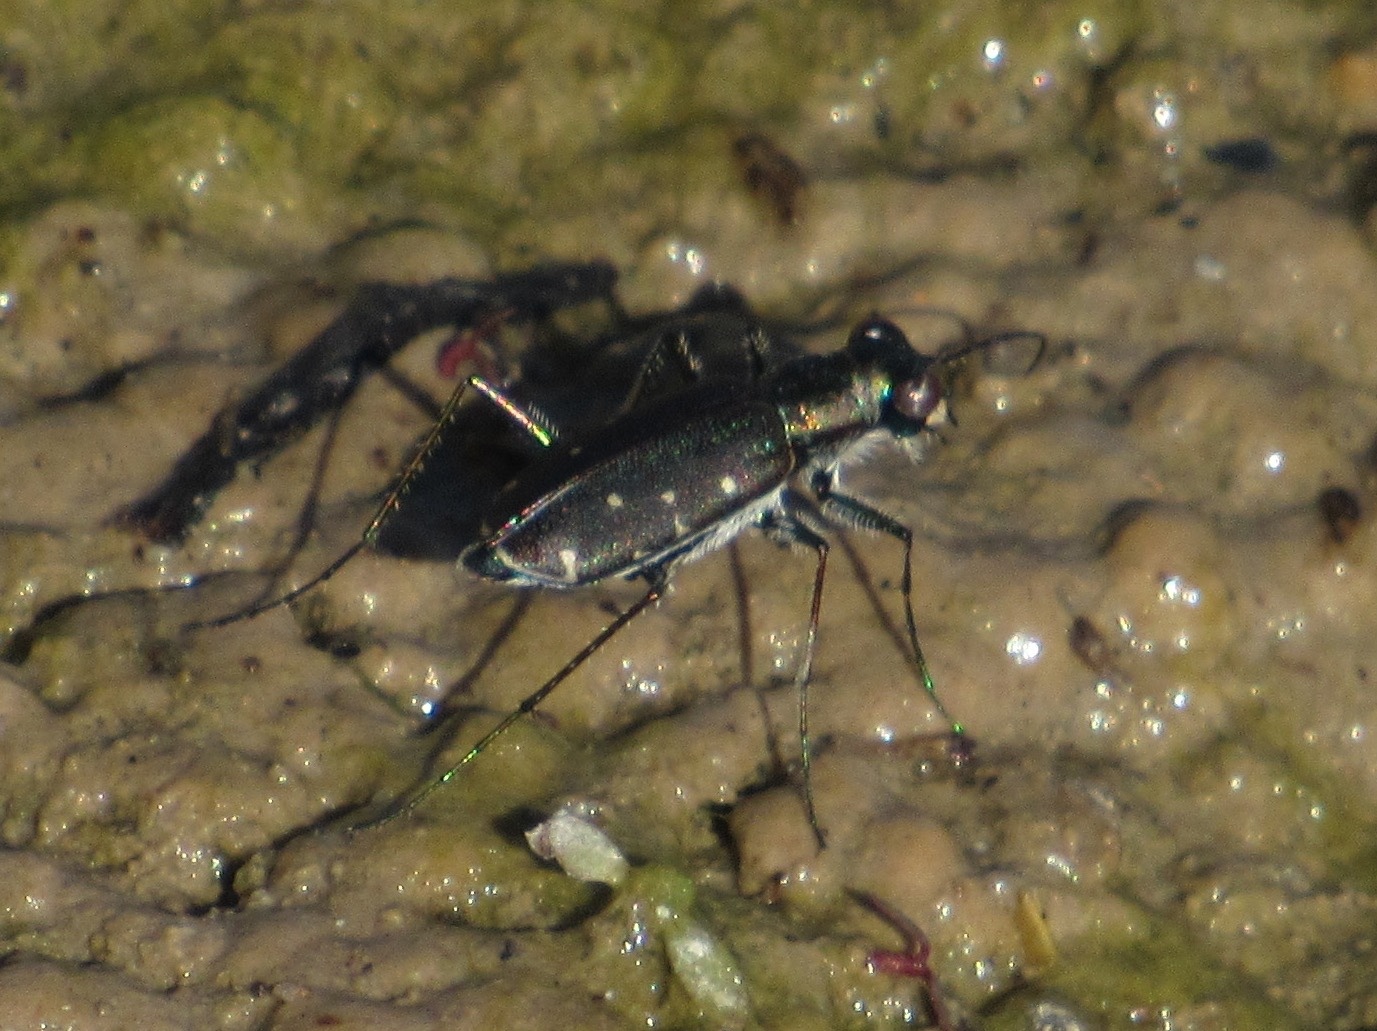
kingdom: Animalia
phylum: Arthropoda
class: Insecta
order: Coleoptera
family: Carabidae
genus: Cicindela
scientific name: Cicindela punctulata
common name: Punctured tiger beetle
